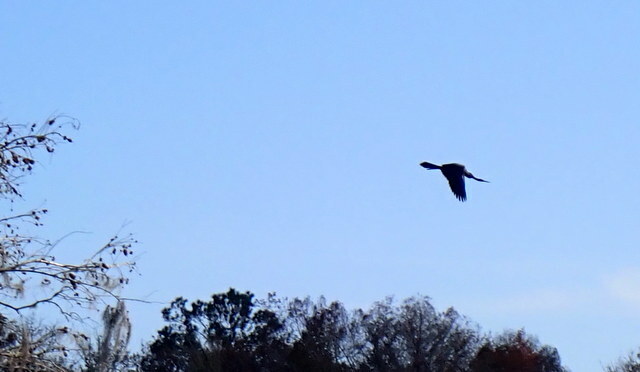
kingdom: Animalia
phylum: Chordata
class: Aves
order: Suliformes
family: Anhingidae
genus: Anhinga
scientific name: Anhinga anhinga
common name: Anhinga
